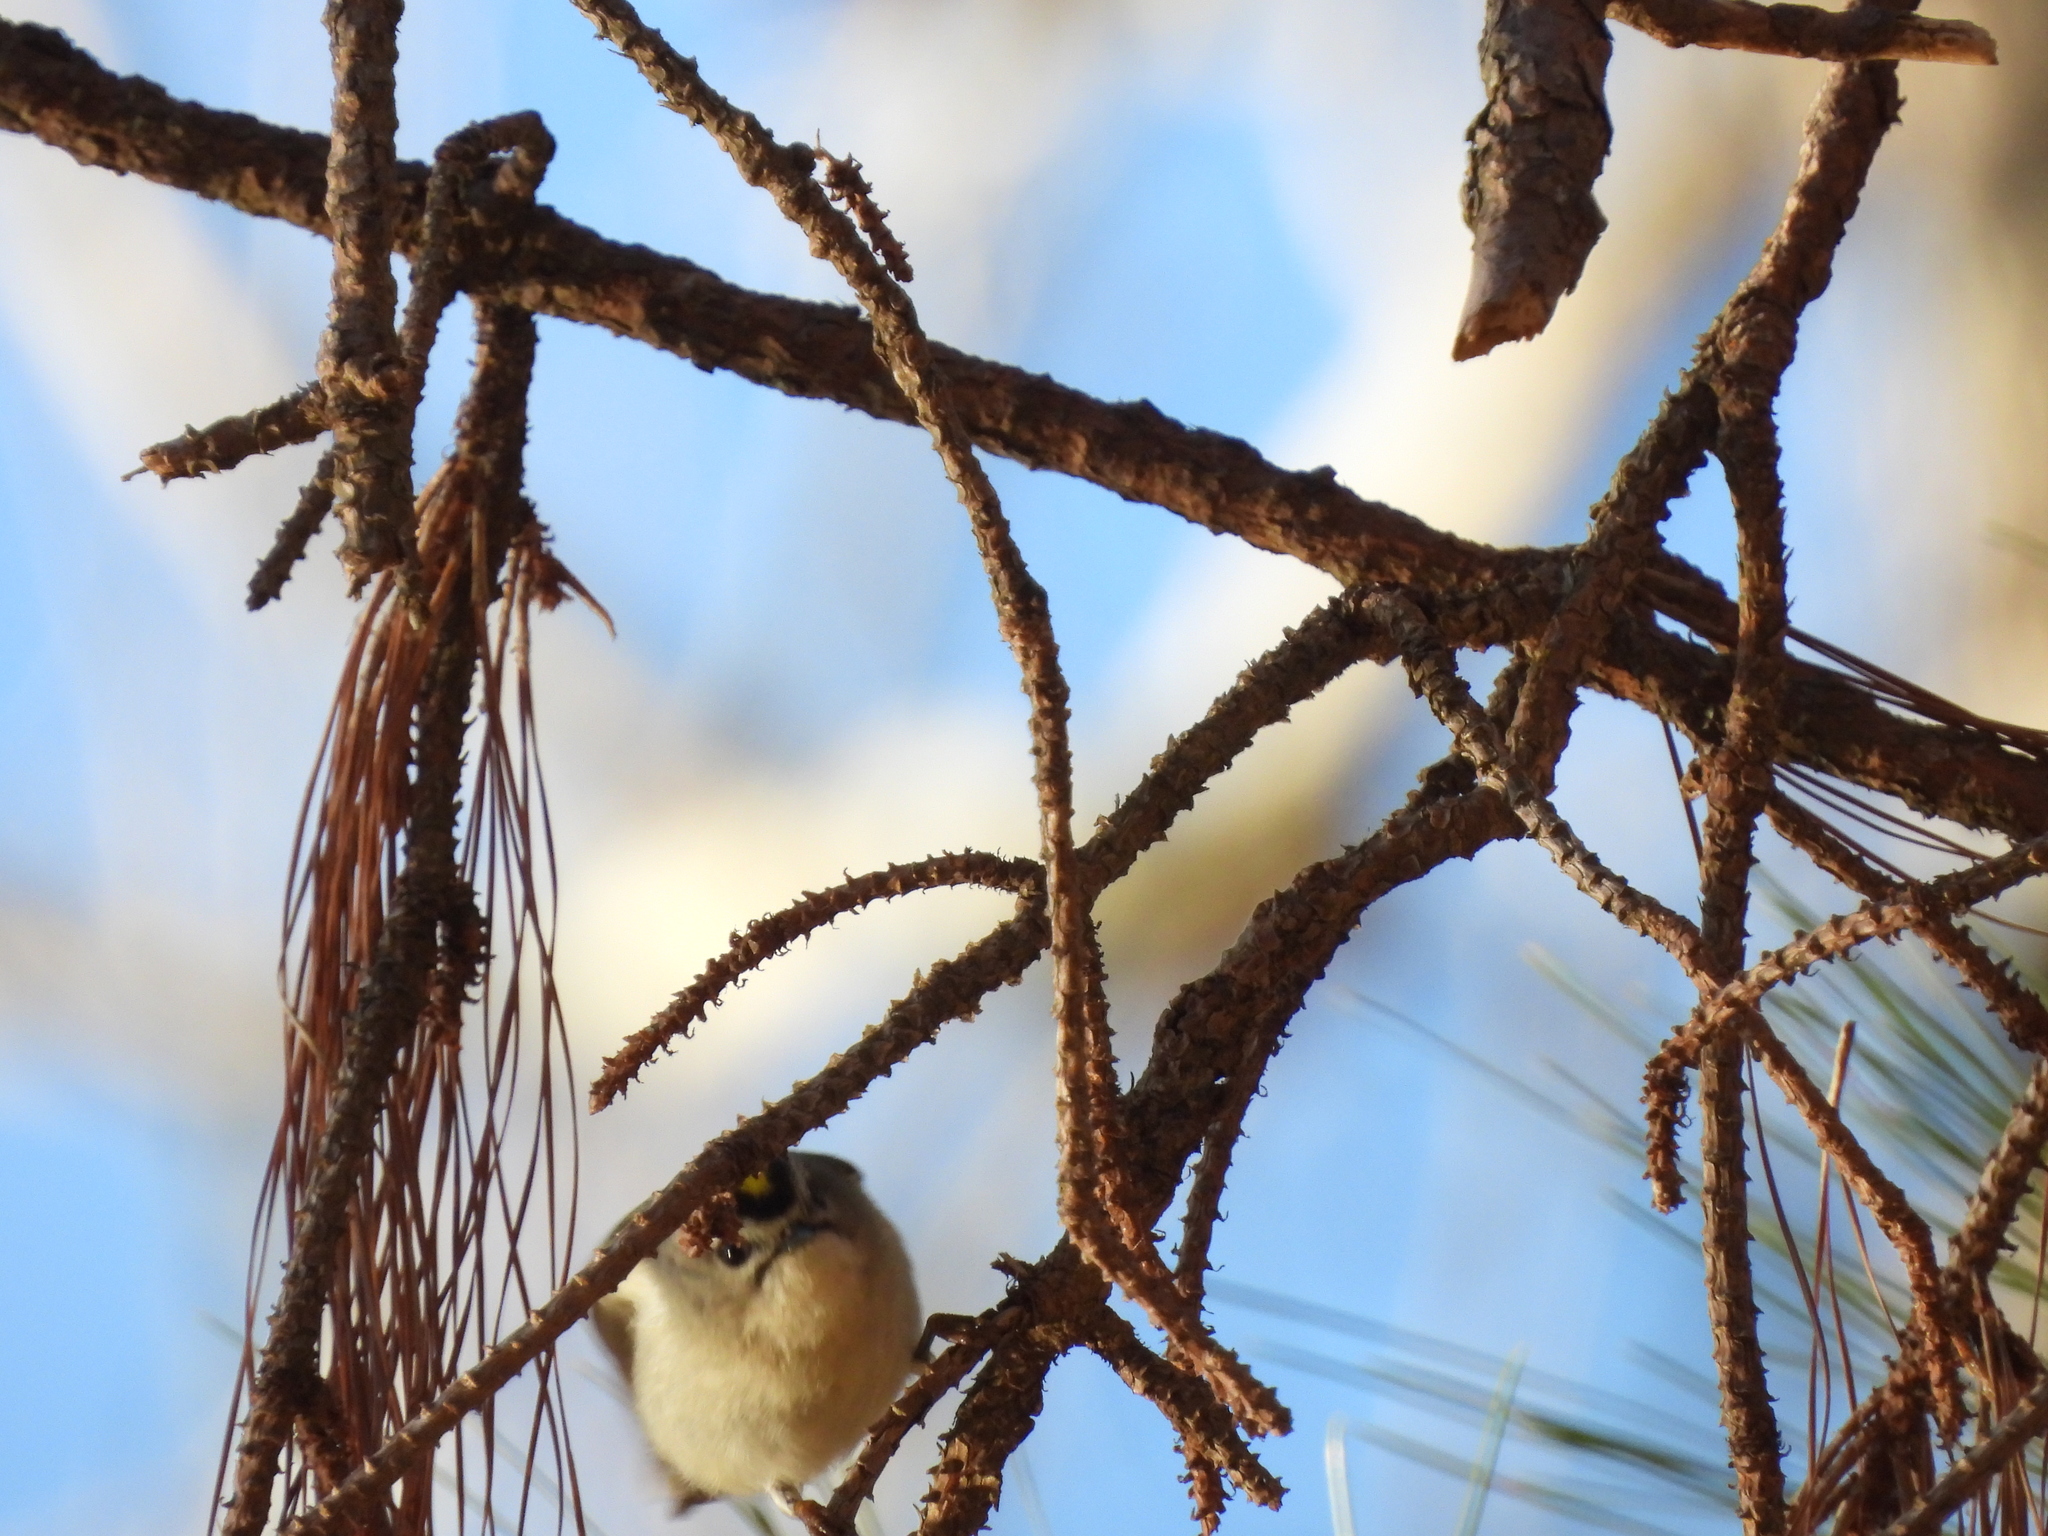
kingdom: Animalia
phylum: Chordata
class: Aves
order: Passeriformes
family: Regulidae
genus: Regulus
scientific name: Regulus satrapa
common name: Golden-crowned kinglet
